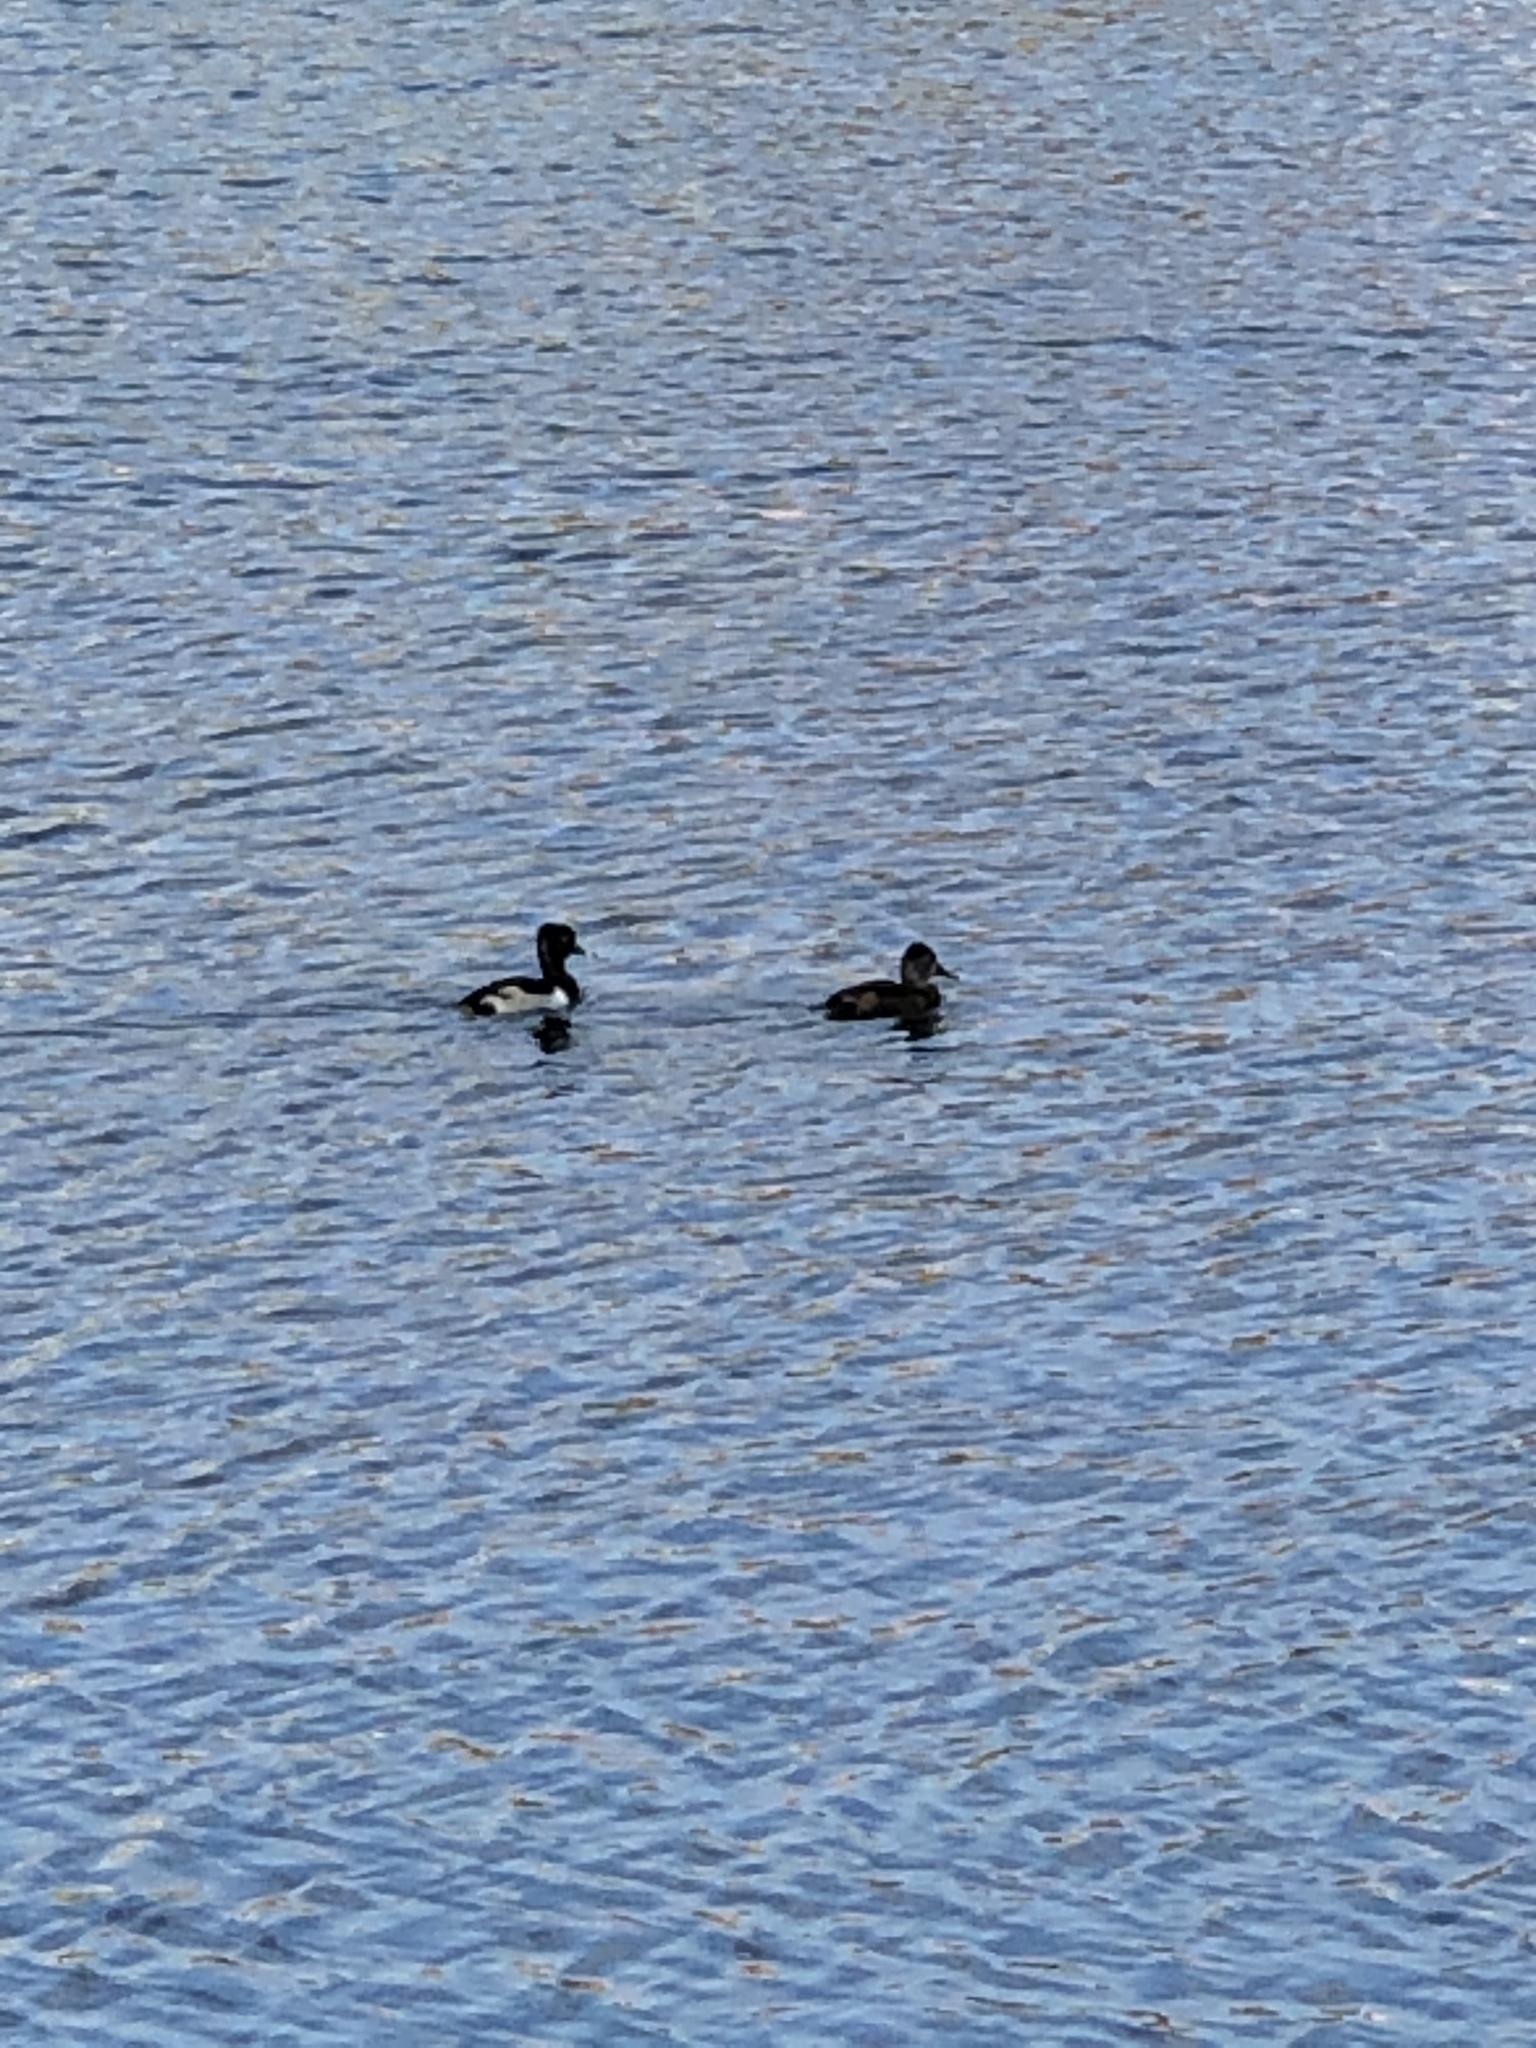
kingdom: Animalia
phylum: Chordata
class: Aves
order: Anseriformes
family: Anatidae
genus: Aythya
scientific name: Aythya collaris
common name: Ring-necked duck
